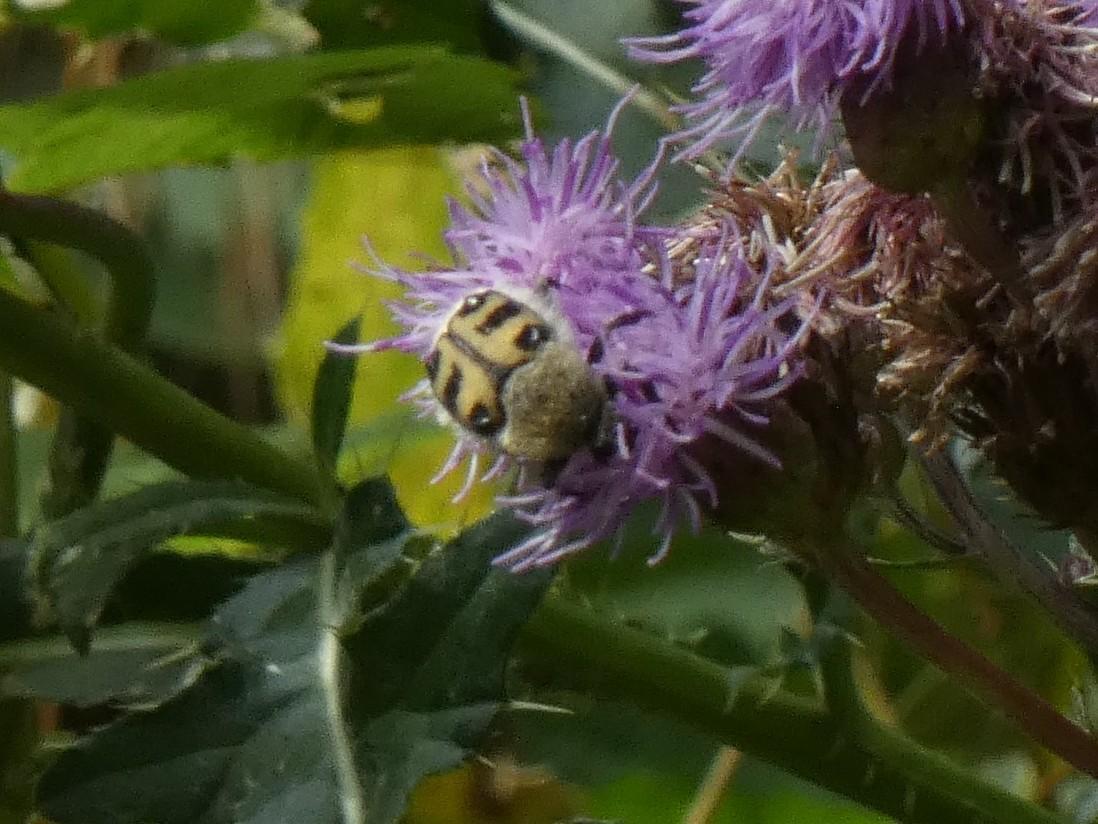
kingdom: Animalia
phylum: Arthropoda
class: Insecta
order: Coleoptera
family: Scarabaeidae
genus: Trichius
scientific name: Trichius gallicus
